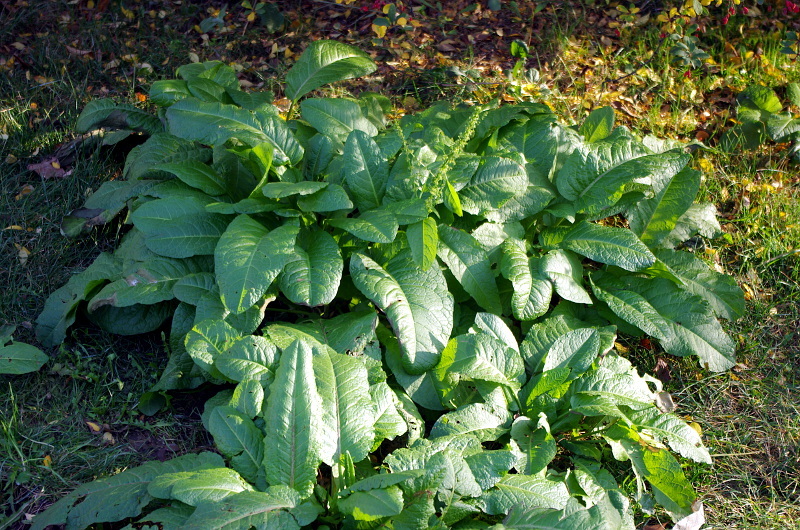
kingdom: Plantae
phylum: Tracheophyta
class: Magnoliopsida
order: Caryophyllales
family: Polygonaceae
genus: Rumex
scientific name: Rumex obtusifolius
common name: Bitter dock
